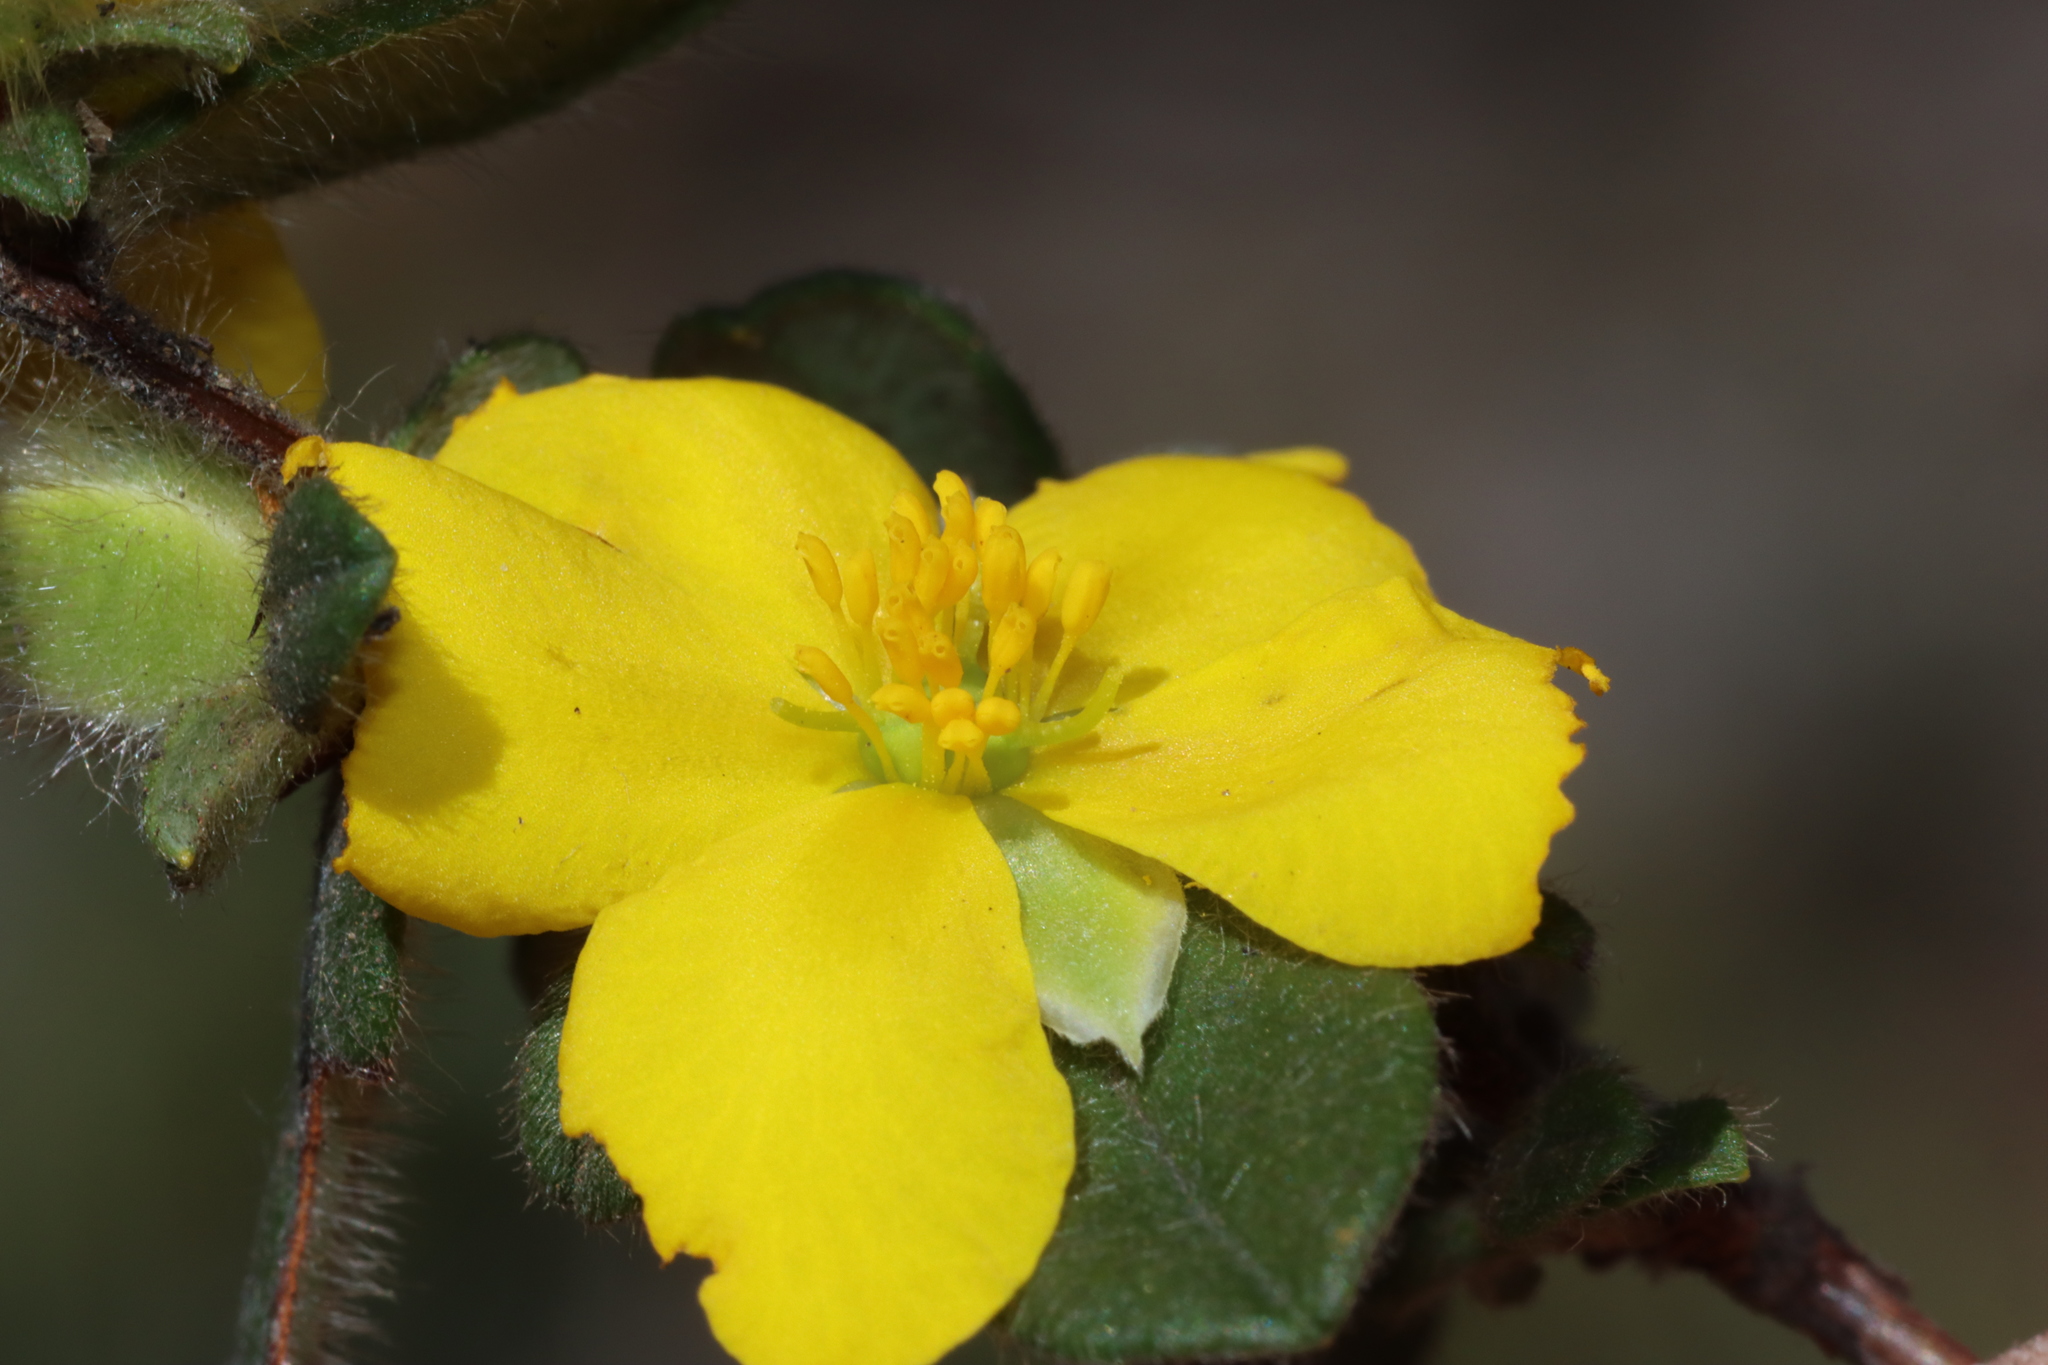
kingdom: Plantae
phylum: Tracheophyta
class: Magnoliopsida
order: Dilleniales
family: Dilleniaceae
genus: Hibbertia
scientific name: Hibbertia semipilosa
